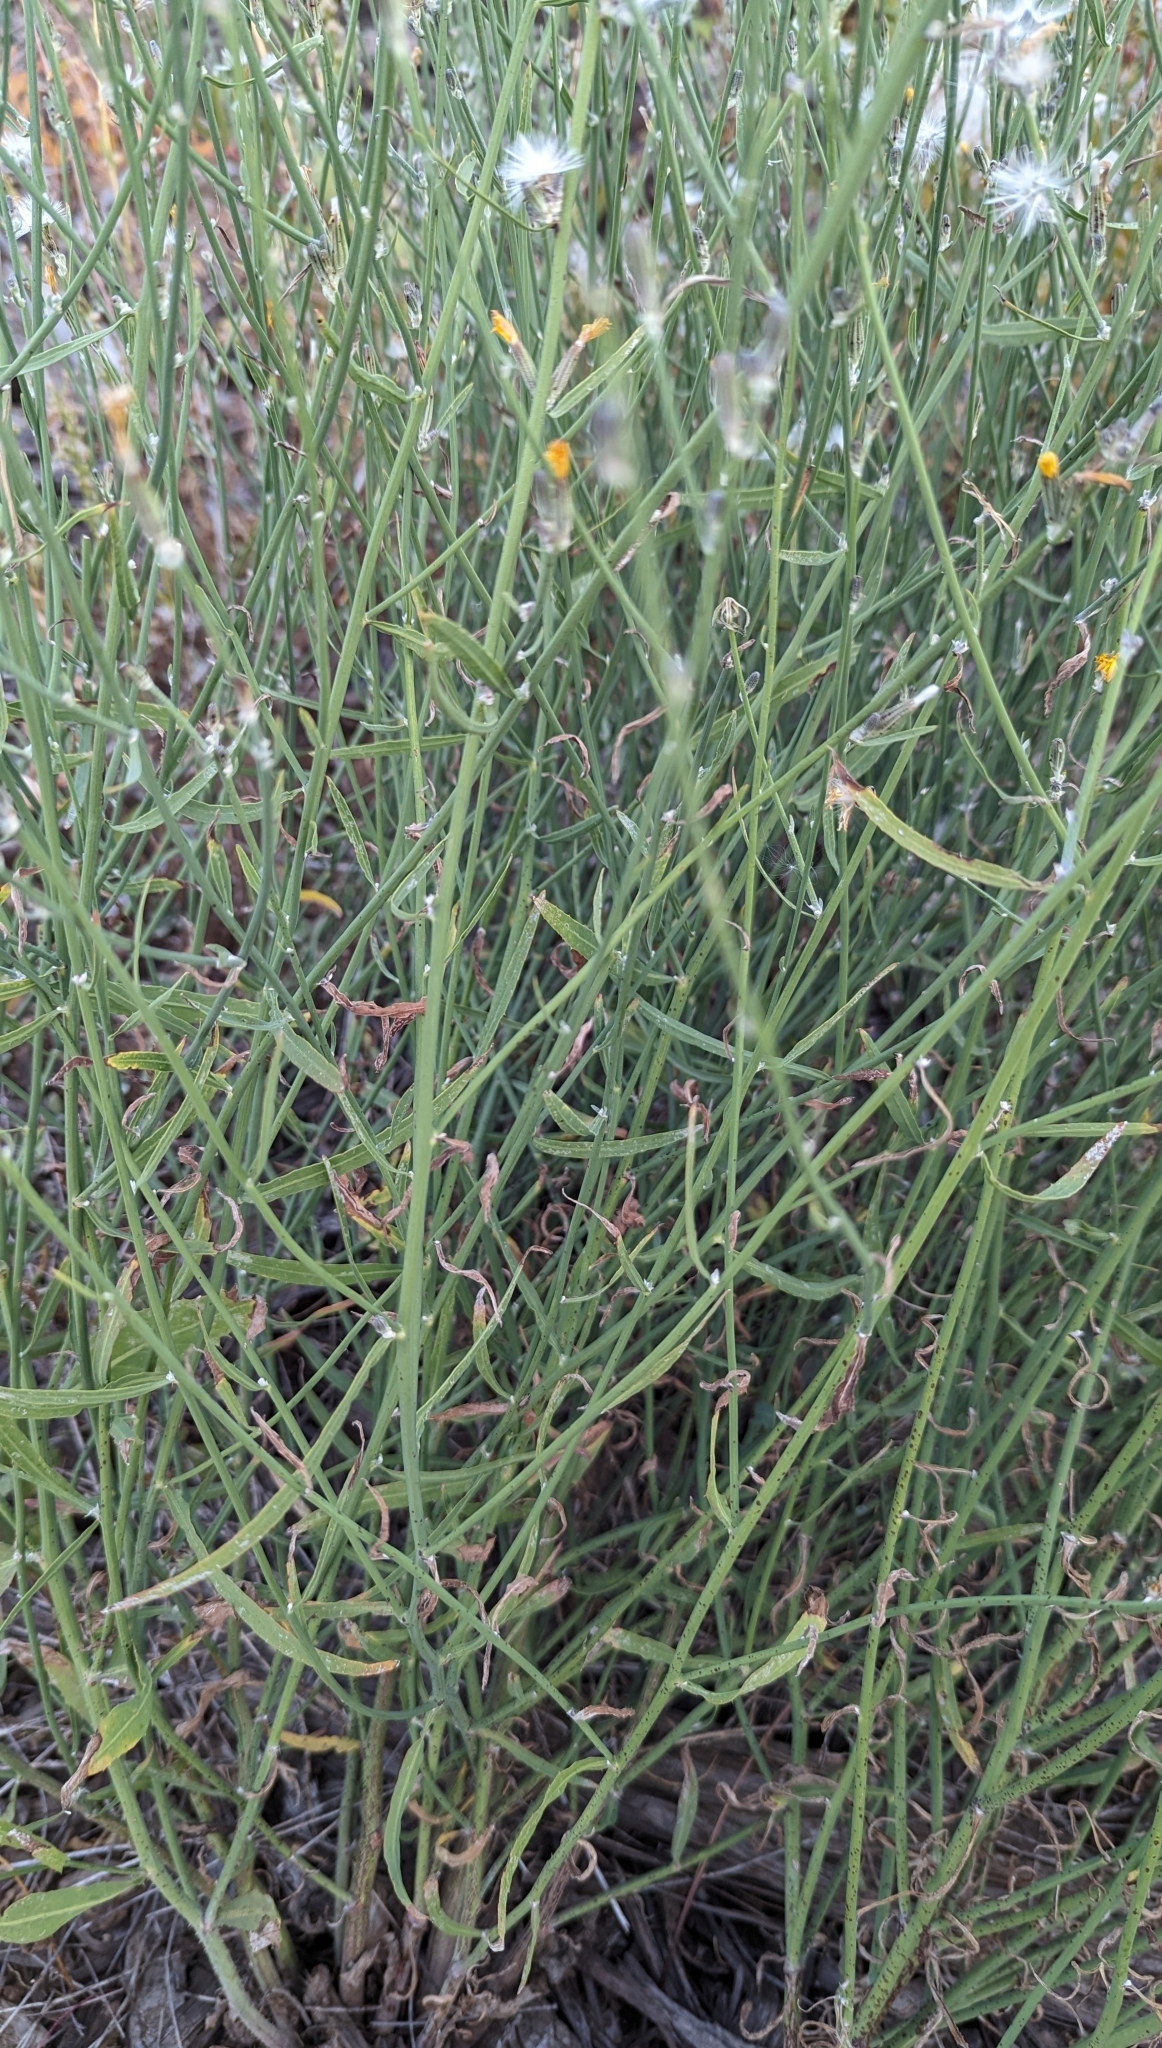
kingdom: Plantae
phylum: Tracheophyta
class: Magnoliopsida
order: Asterales
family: Asteraceae
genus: Chondrilla
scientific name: Chondrilla juncea
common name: Skeleton weed
